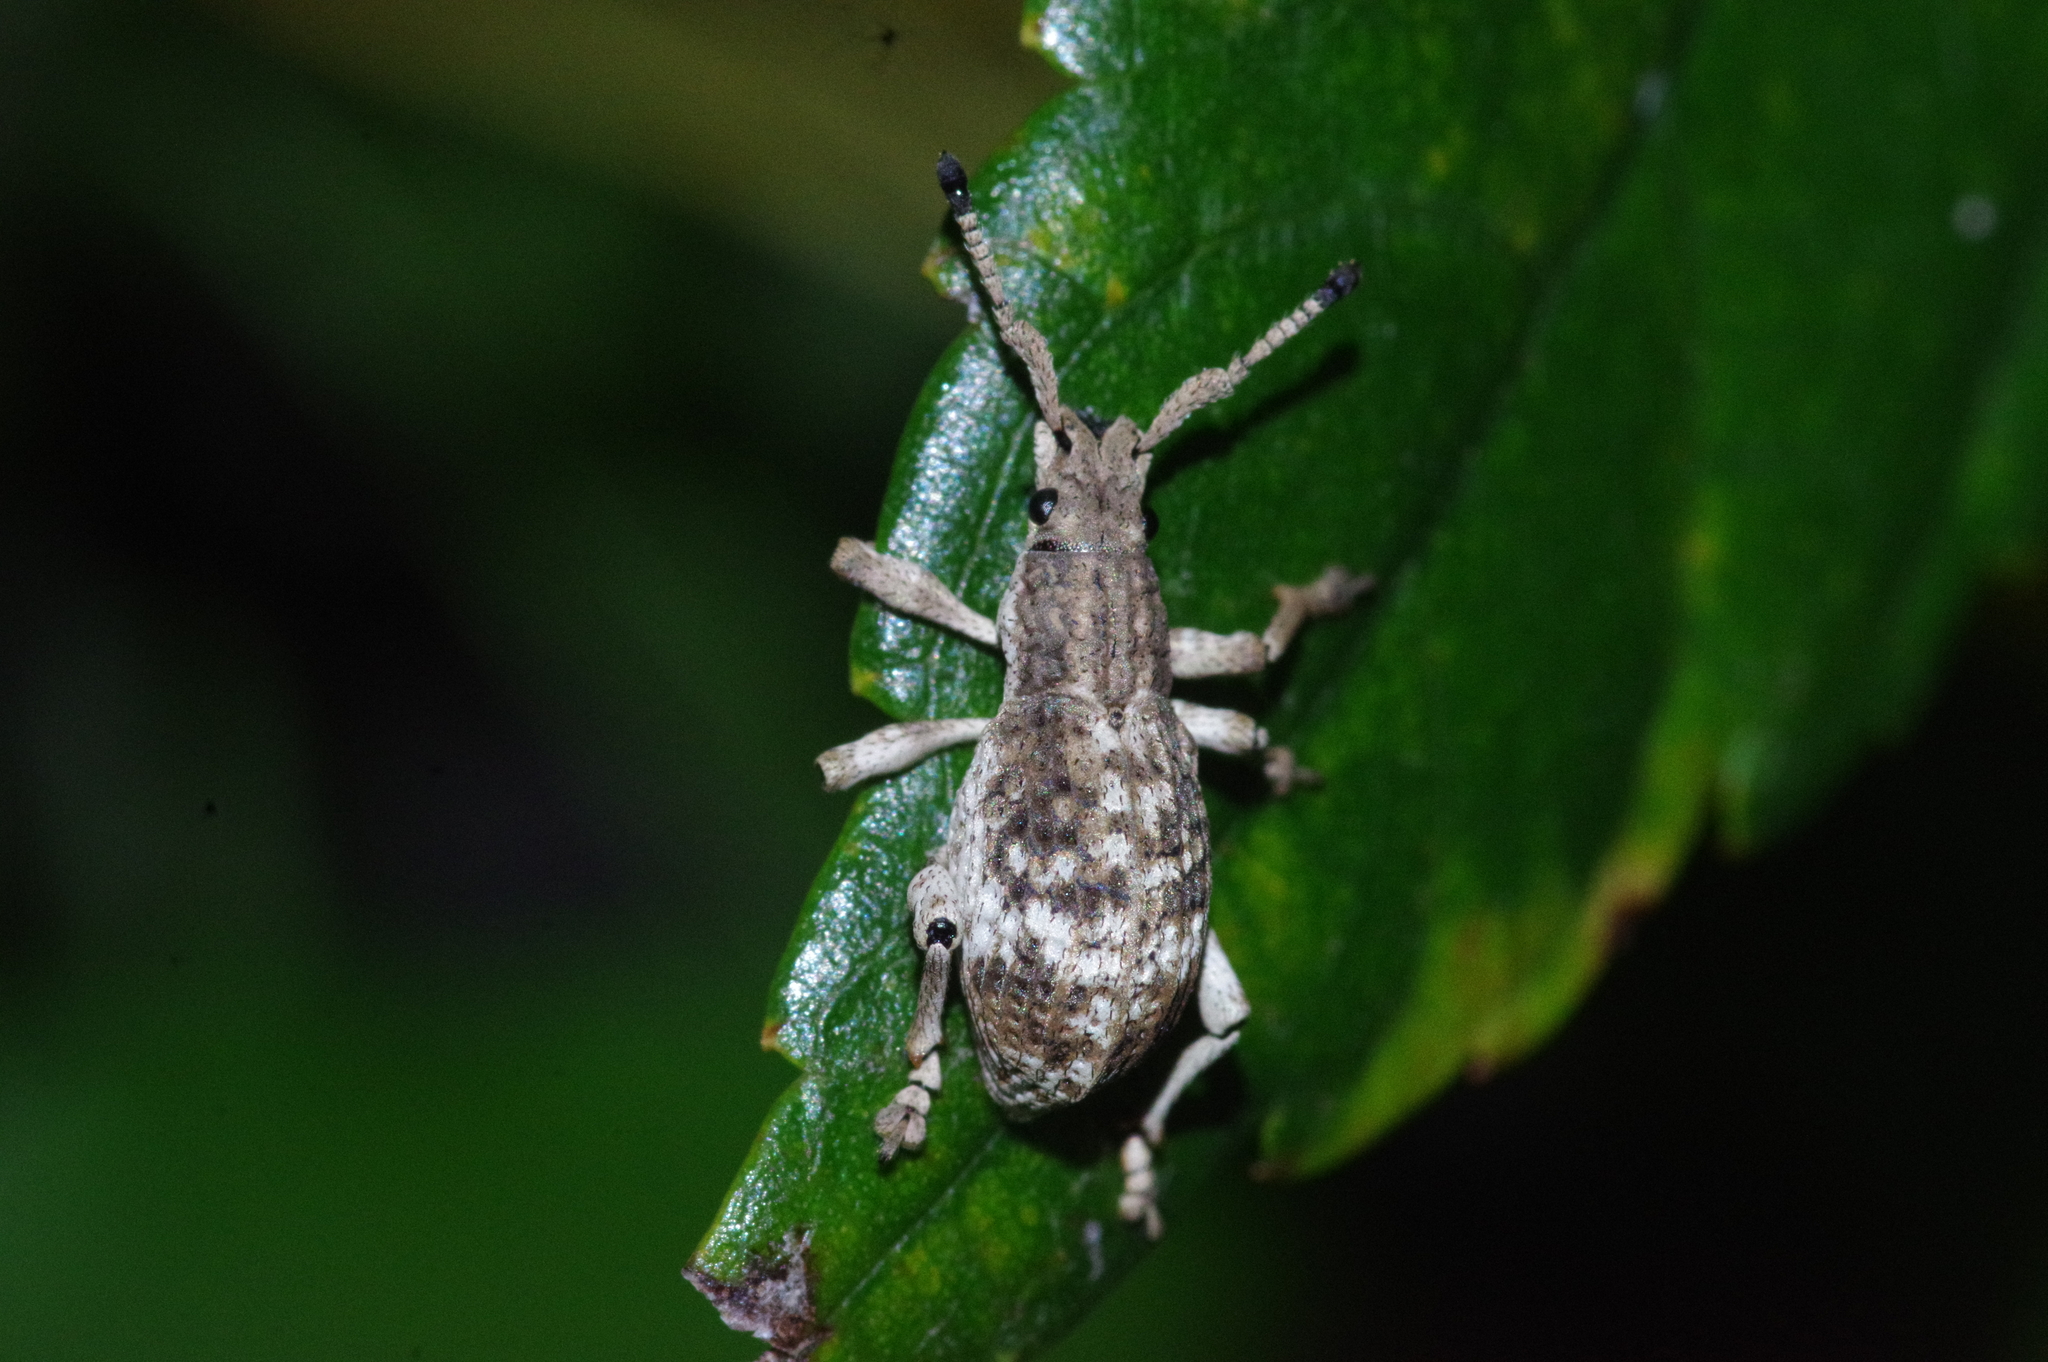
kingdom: Animalia
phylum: Arthropoda
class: Insecta
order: Coleoptera
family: Curculionidae
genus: Episomus
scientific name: Episomus mori
